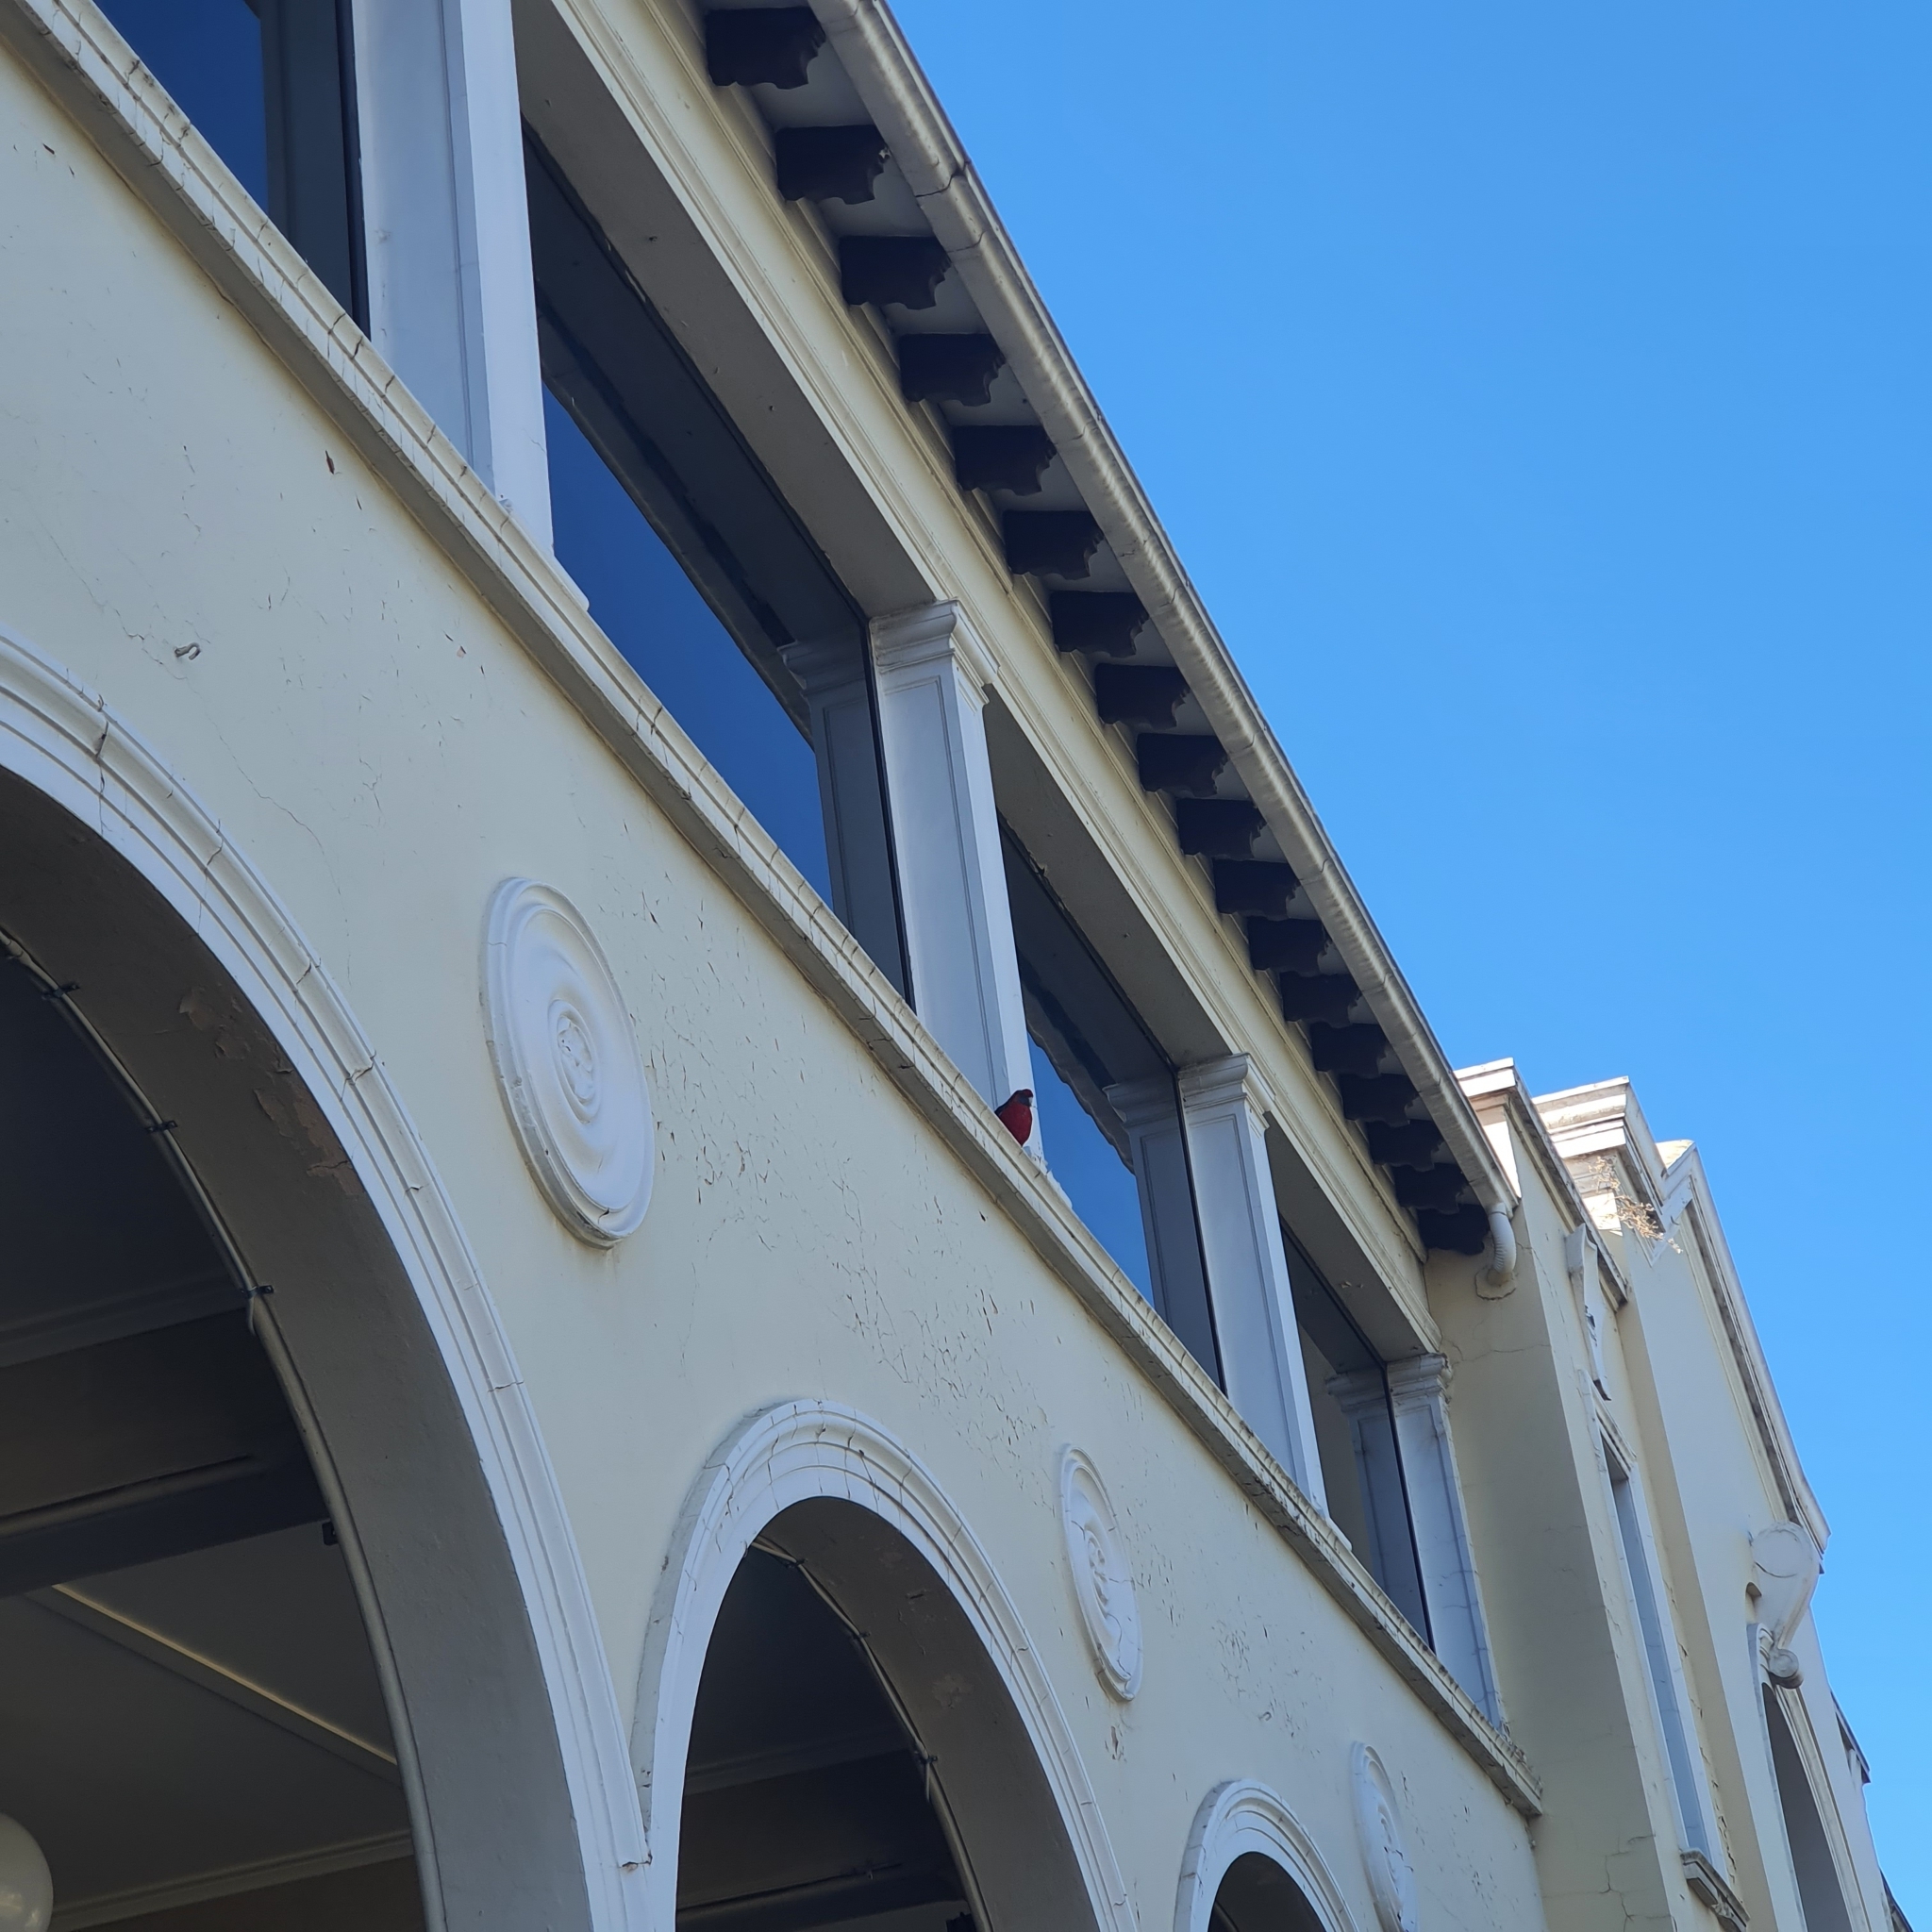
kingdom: Animalia
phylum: Chordata
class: Aves
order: Psittaciformes
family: Psittacidae
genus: Platycercus
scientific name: Platycercus elegans
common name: Crimson rosella
